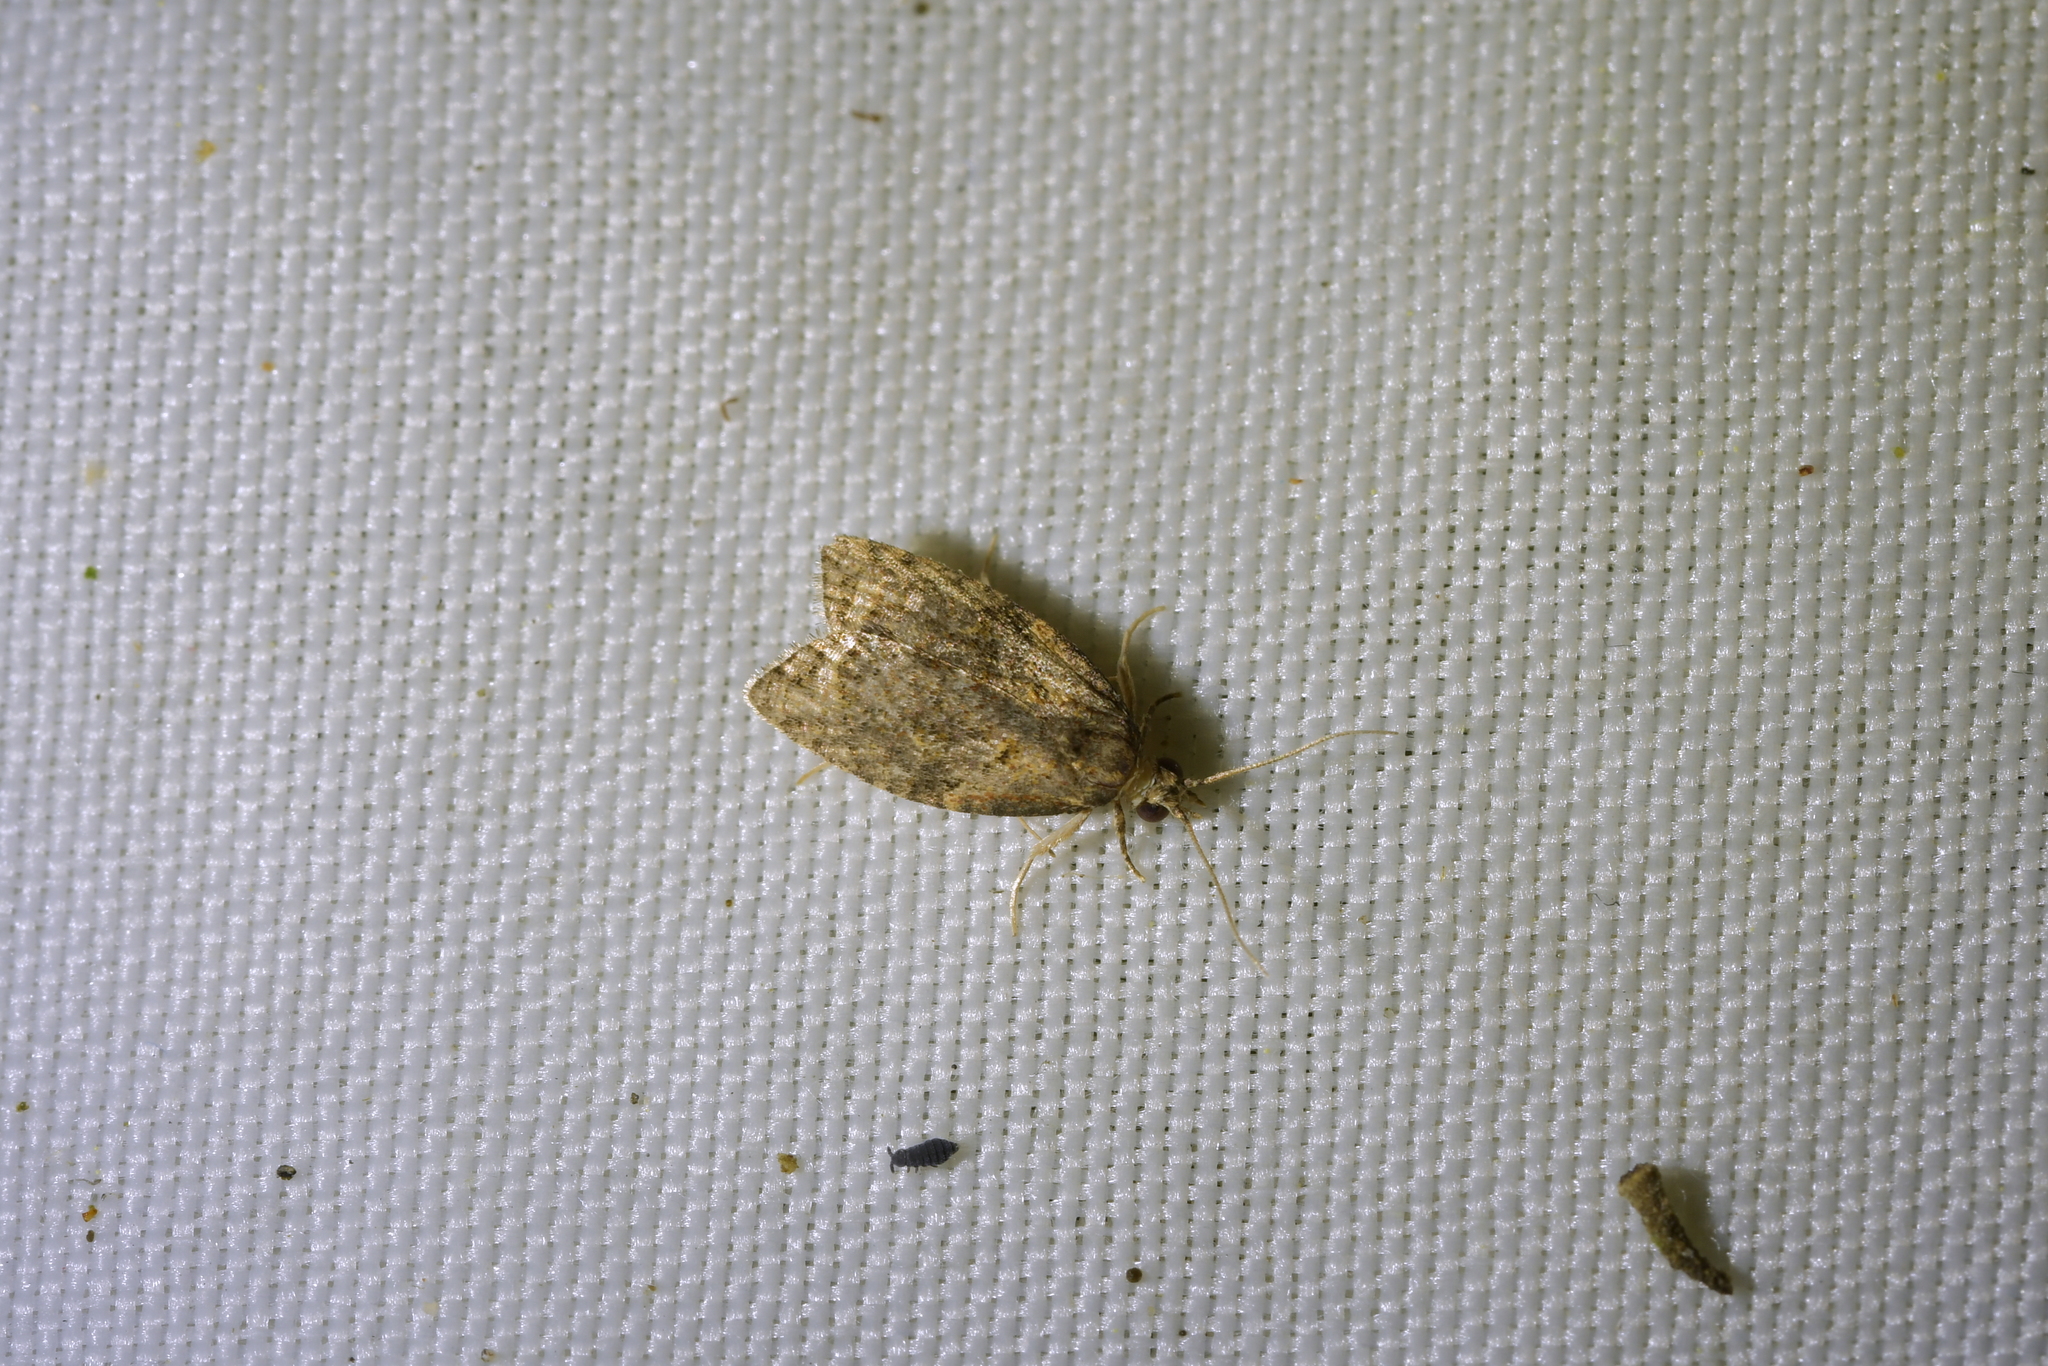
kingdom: Animalia
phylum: Arthropoda
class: Insecta
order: Lepidoptera
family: Tortricidae
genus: Capua
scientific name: Capua intractana
